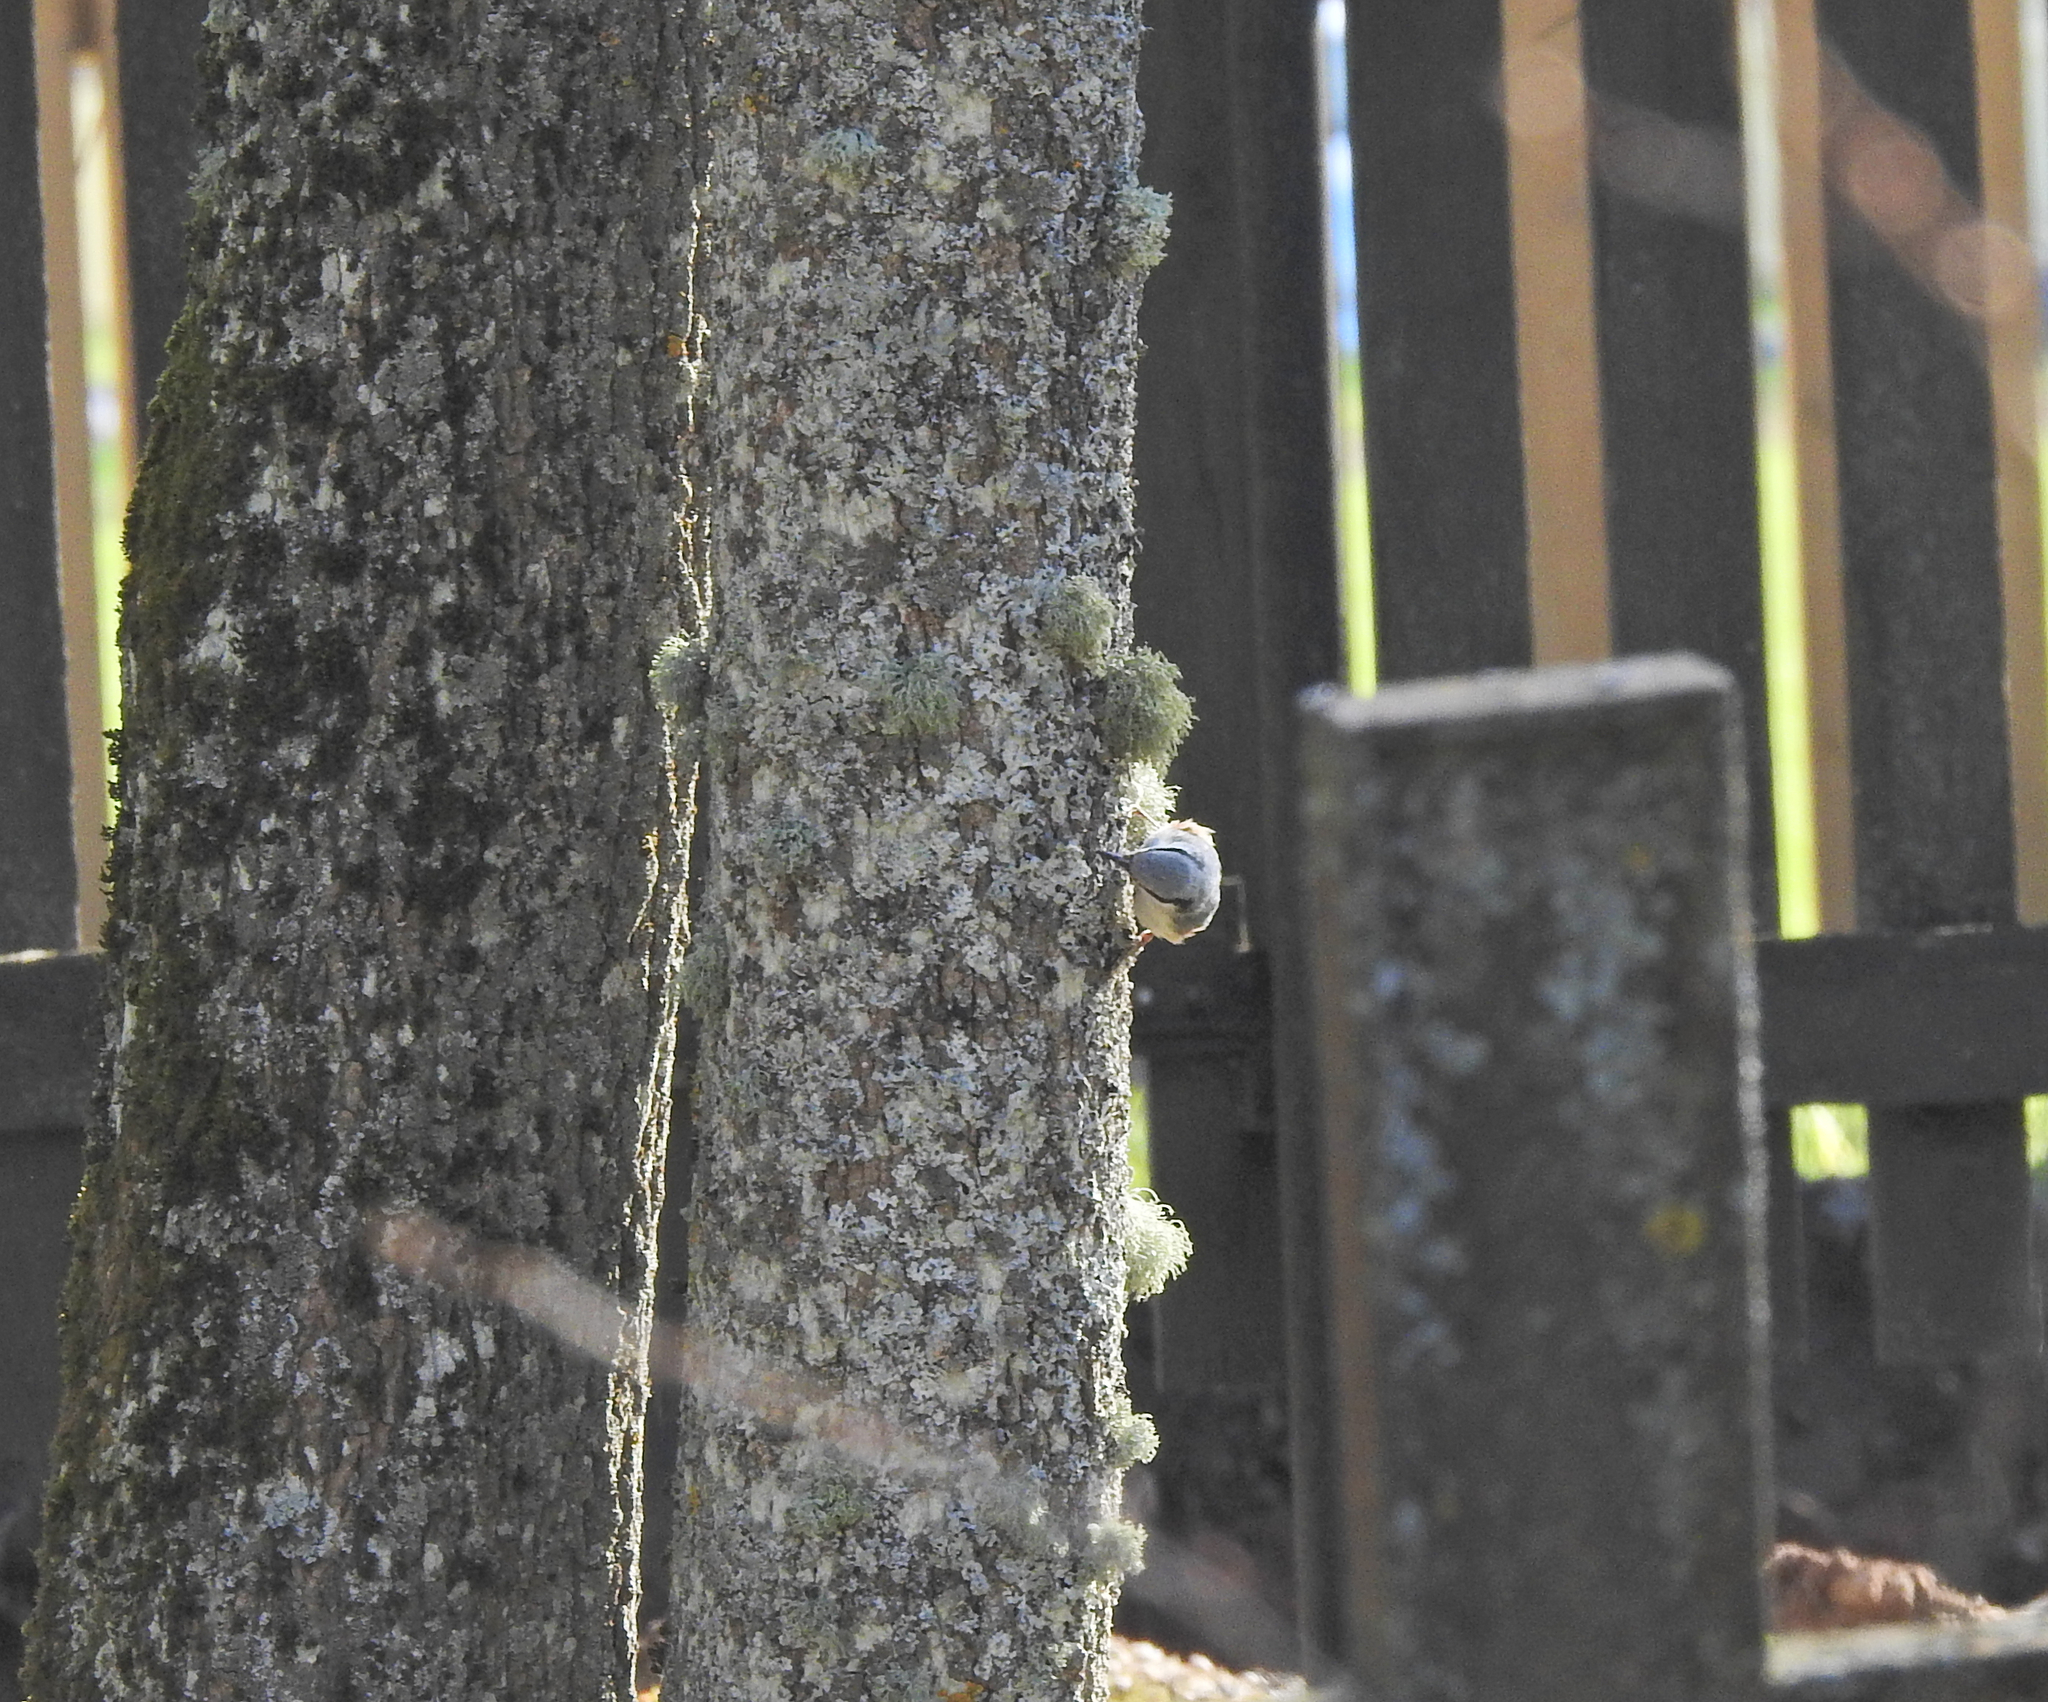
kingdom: Animalia
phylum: Chordata
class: Aves
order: Passeriformes
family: Sittidae
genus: Sitta
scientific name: Sitta europaea
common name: Eurasian nuthatch
